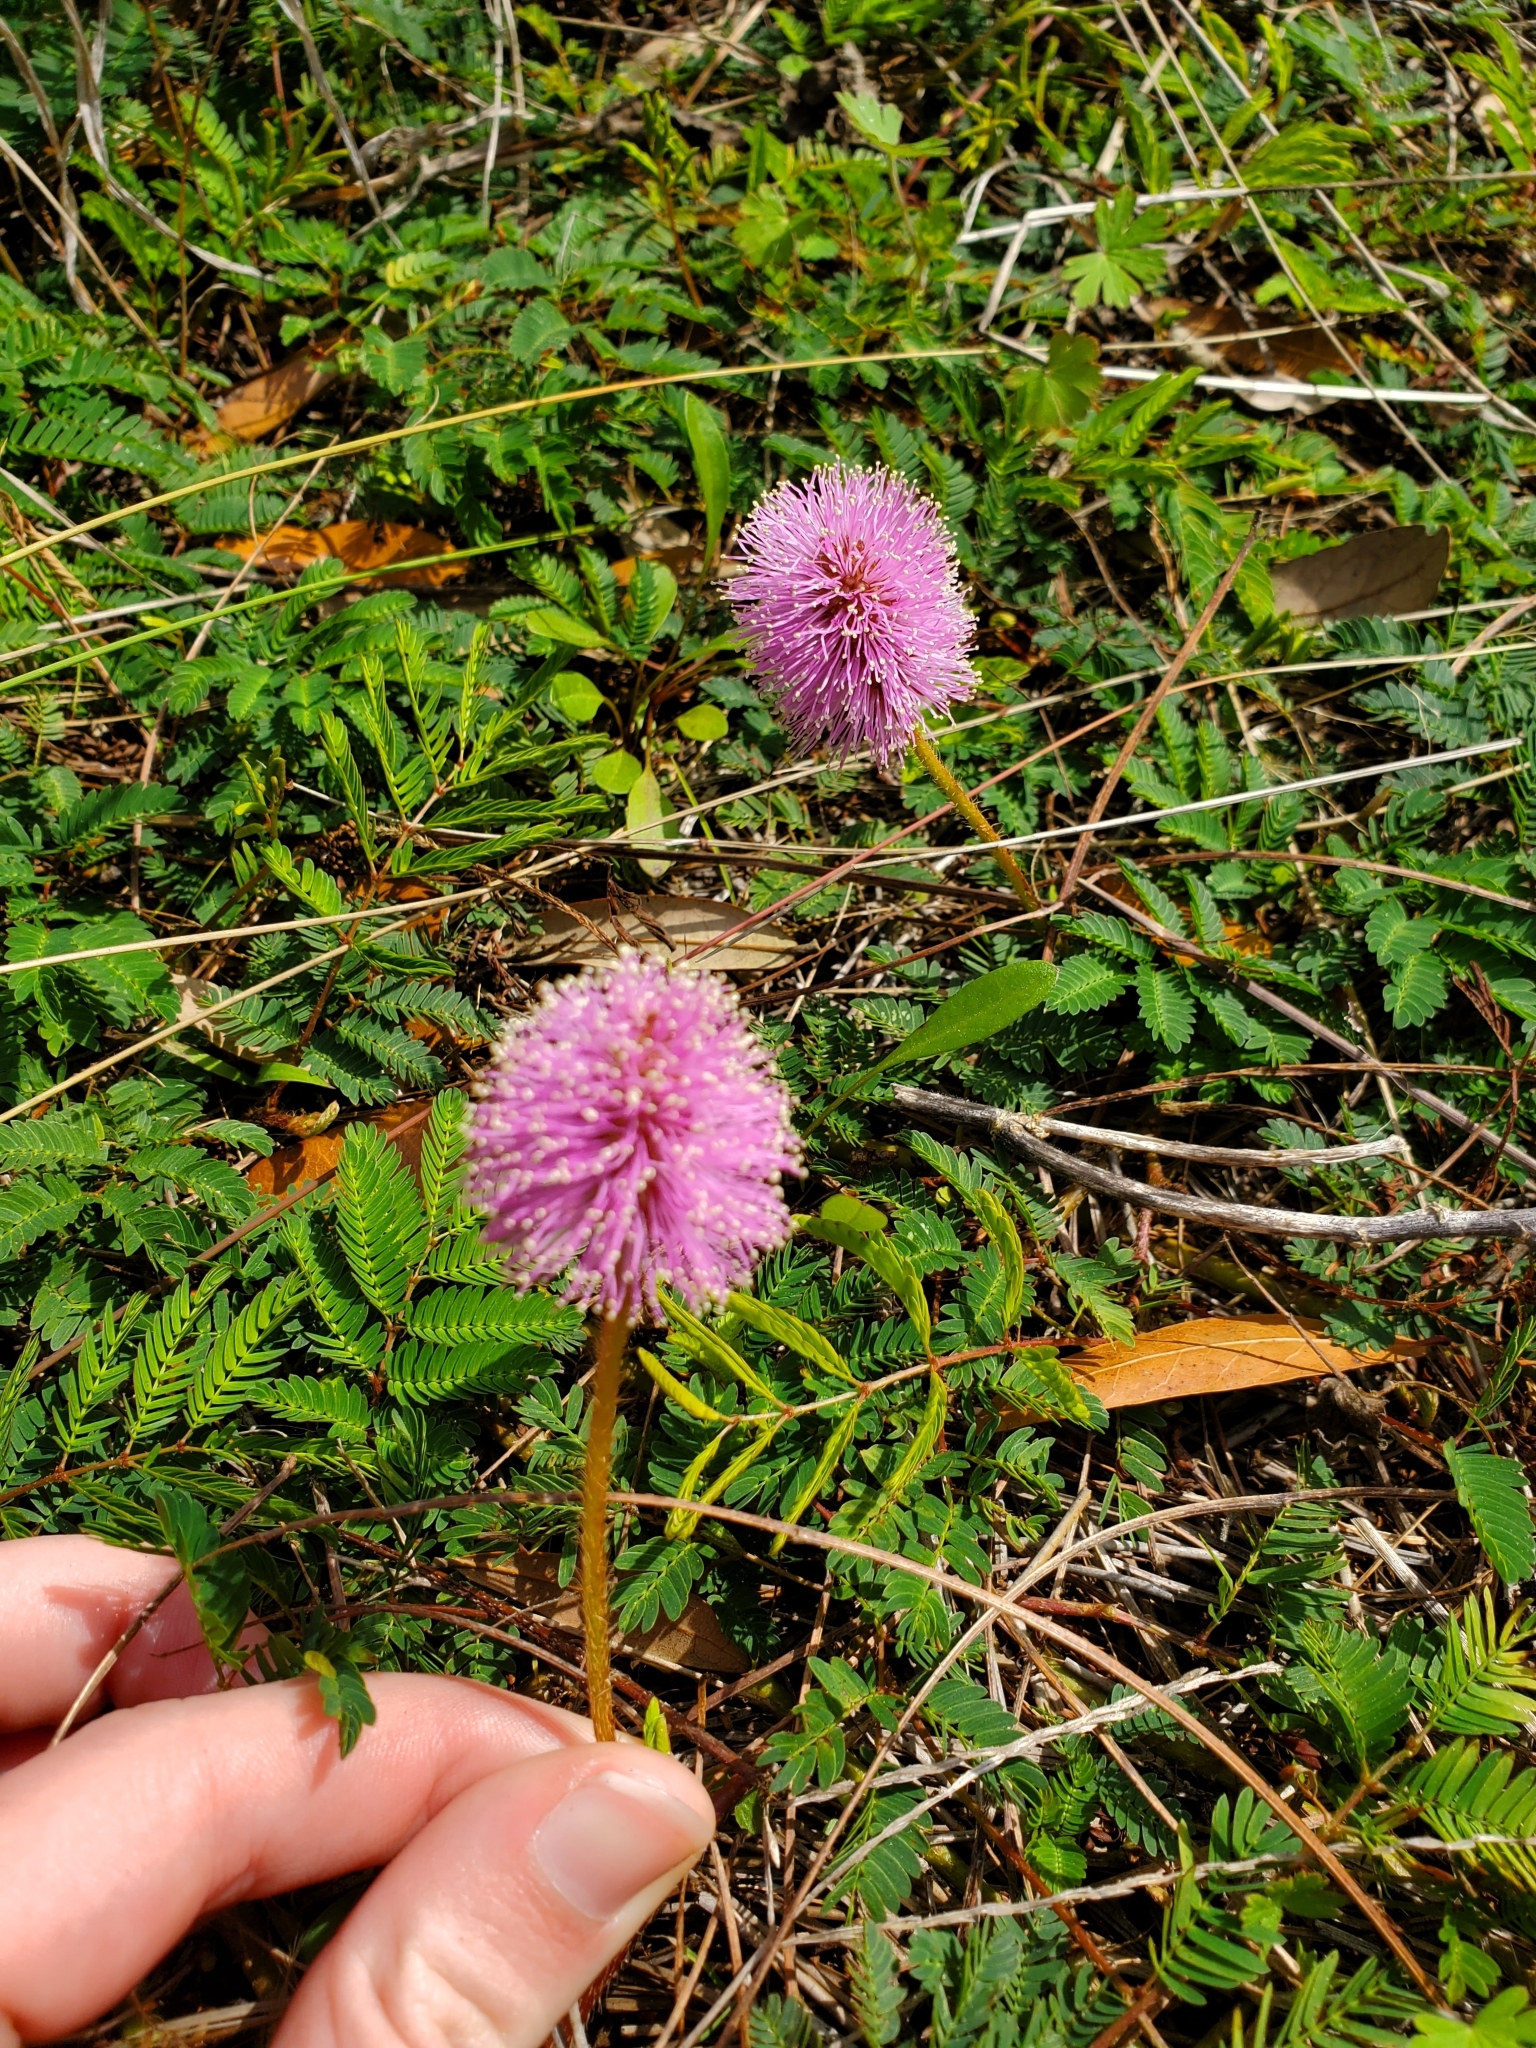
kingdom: Plantae
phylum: Tracheophyta
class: Magnoliopsida
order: Fabales
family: Fabaceae
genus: Mimosa
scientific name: Mimosa strigillosa
